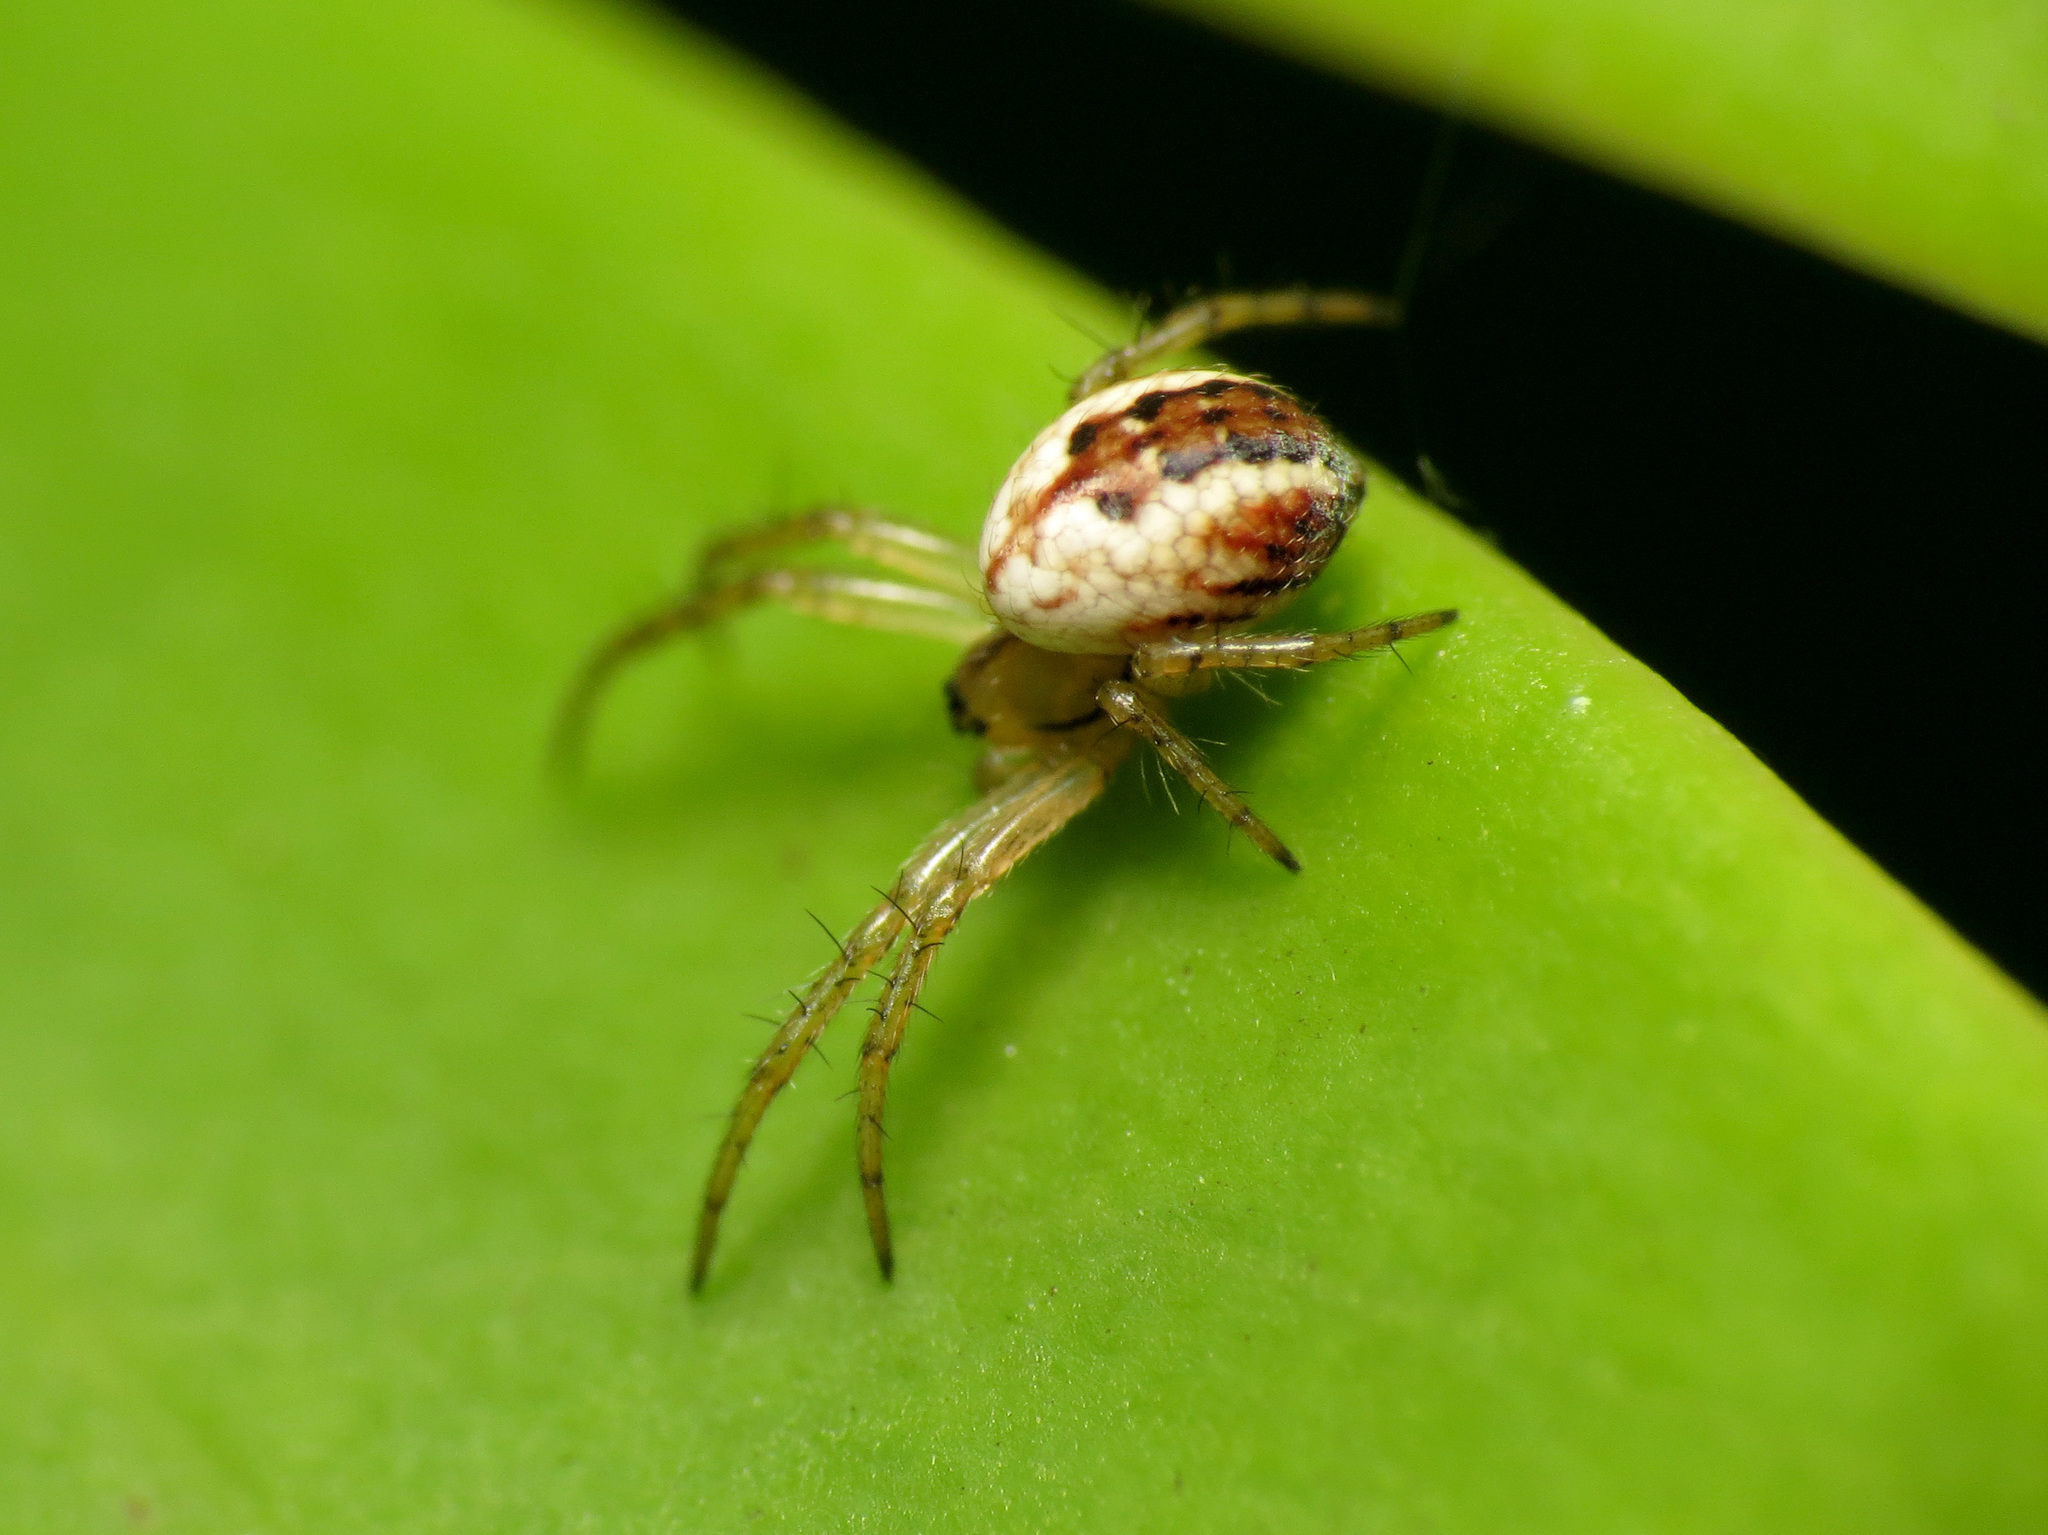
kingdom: Animalia
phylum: Arthropoda
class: Arachnida
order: Araneae
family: Araneidae
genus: Mangora
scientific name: Mangora acalypha
